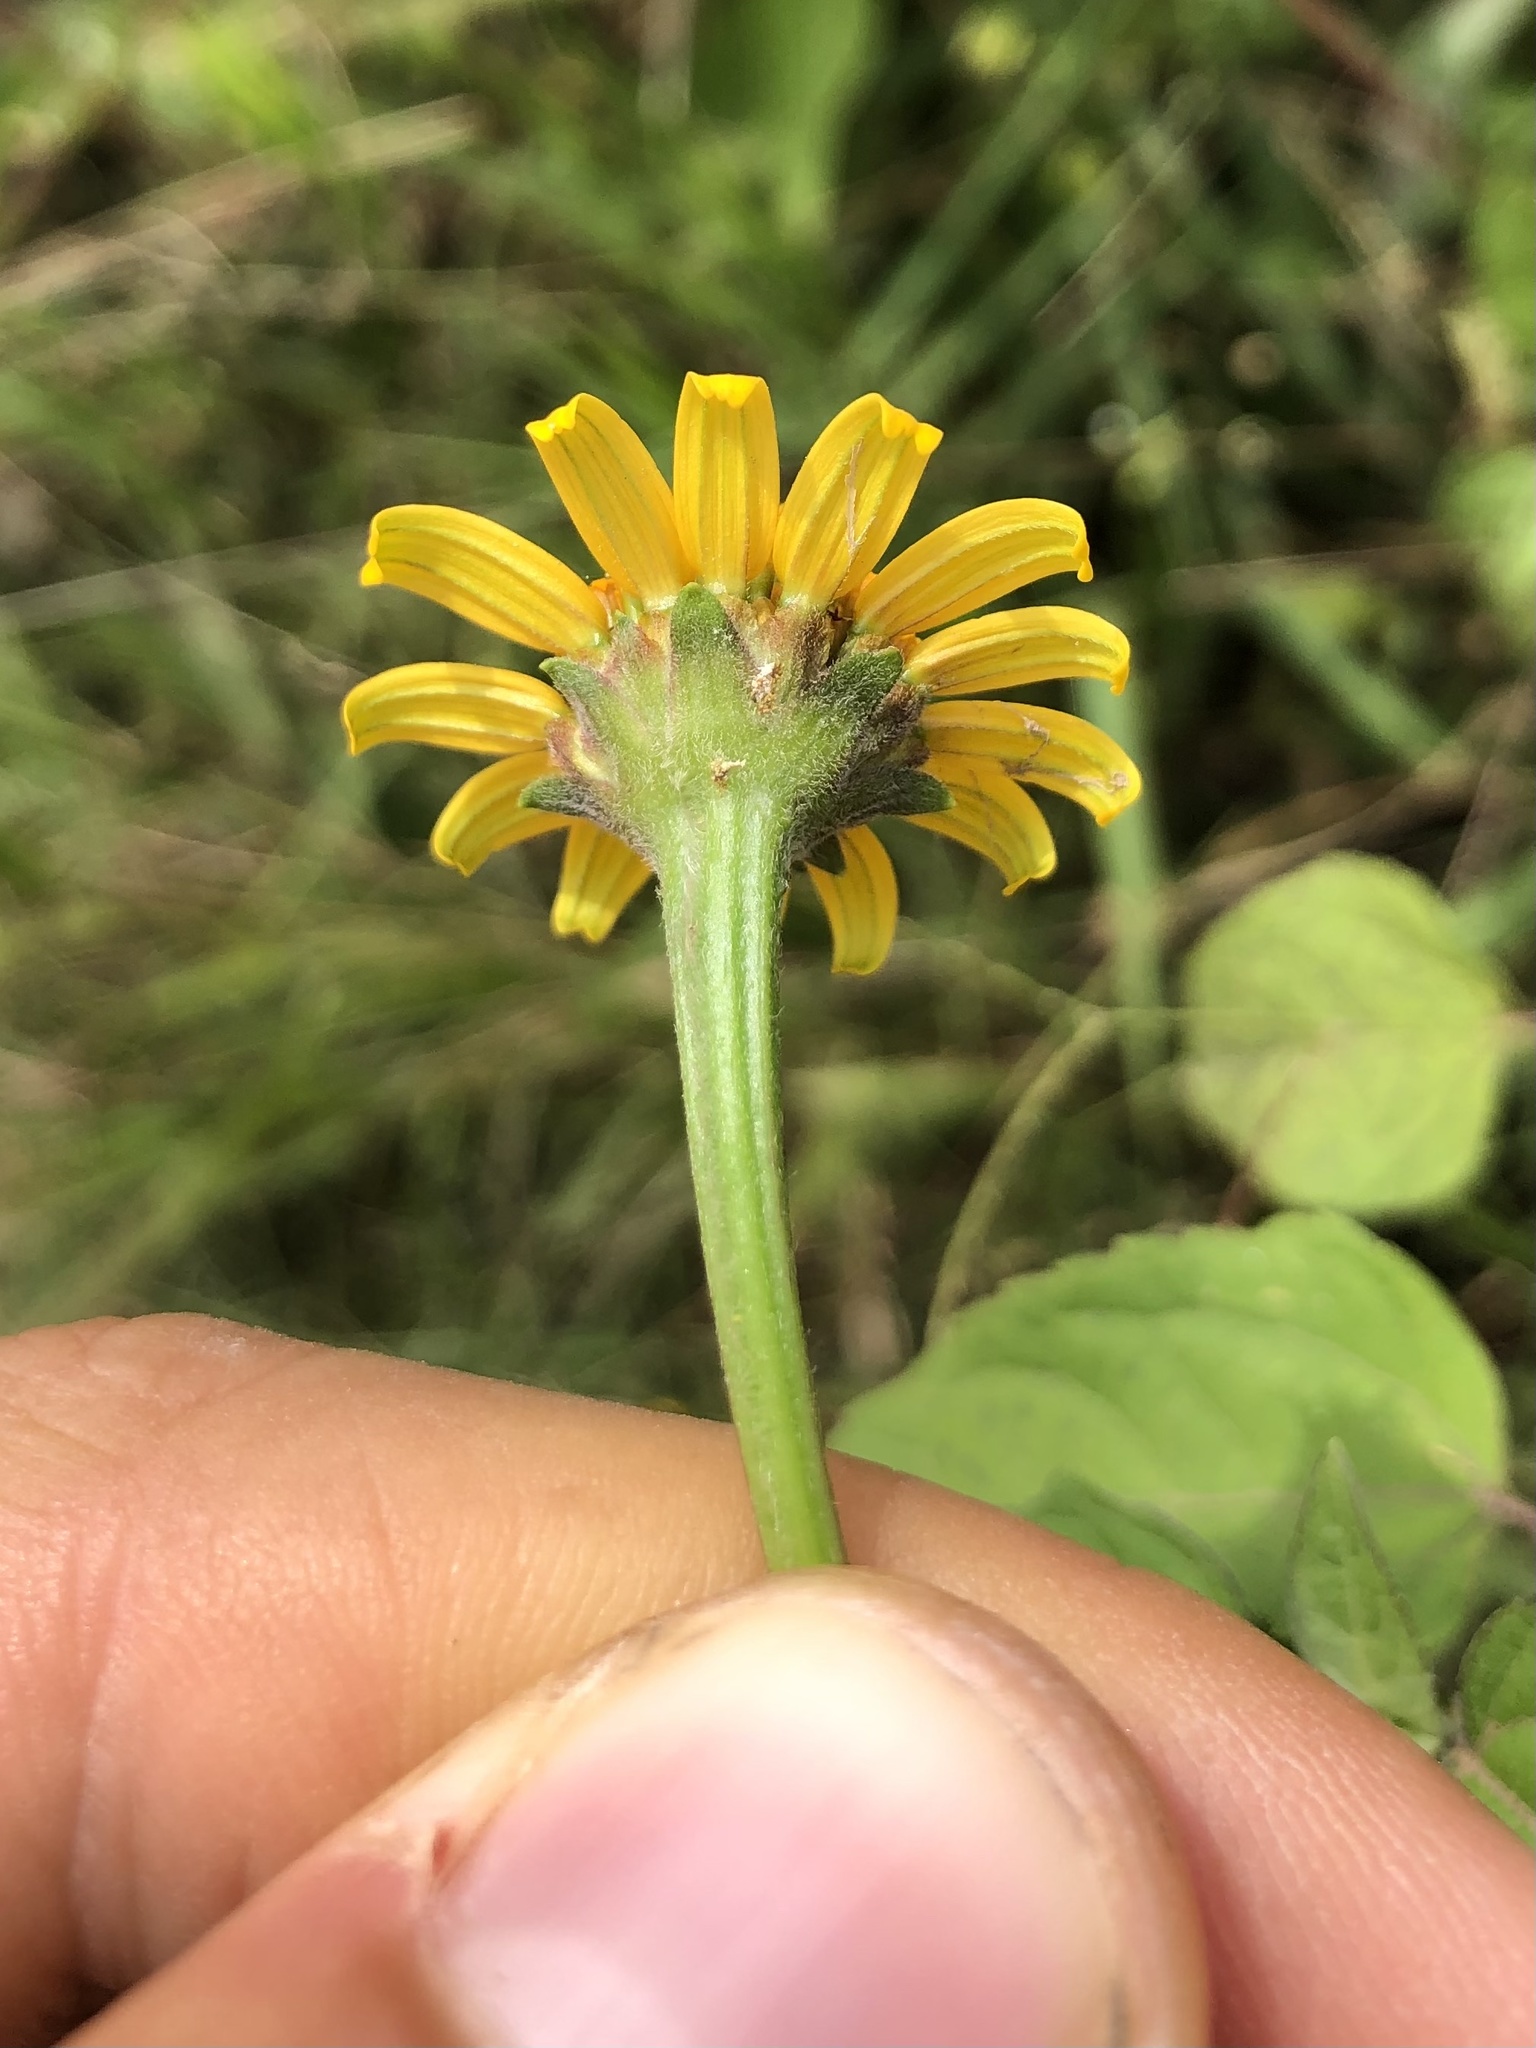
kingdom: Plantae
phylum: Tracheophyta
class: Magnoliopsida
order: Asterales
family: Asteraceae
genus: Heliopsis
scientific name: Heliopsis buphthalmoides
